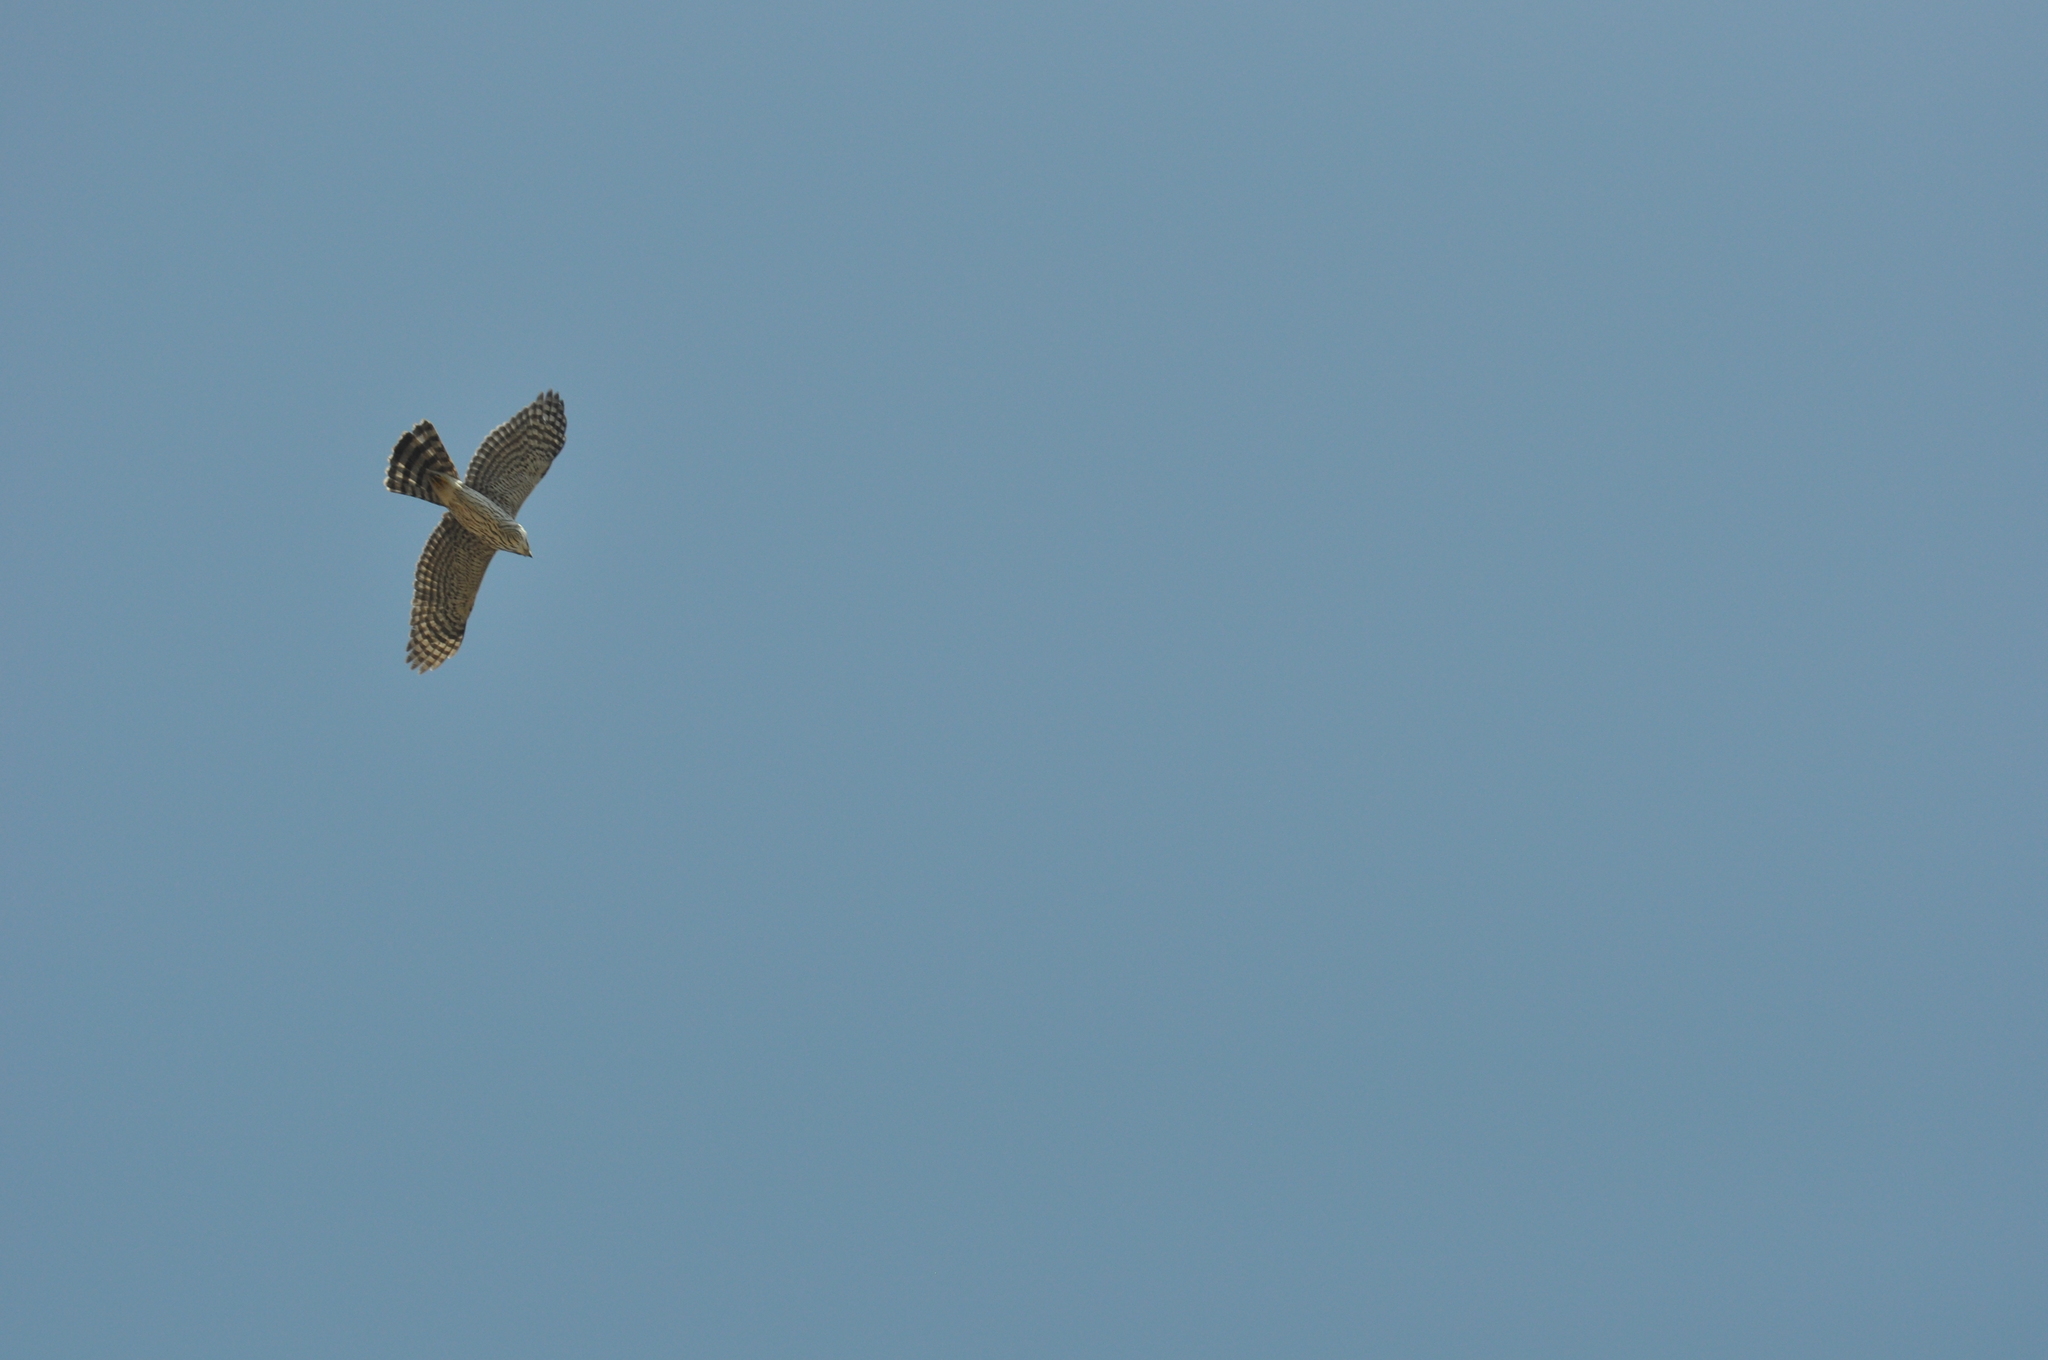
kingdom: Animalia
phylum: Chordata
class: Aves
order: Accipitriformes
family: Accipitridae
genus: Accipiter
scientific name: Accipiter cooperii
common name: Cooper's hawk
